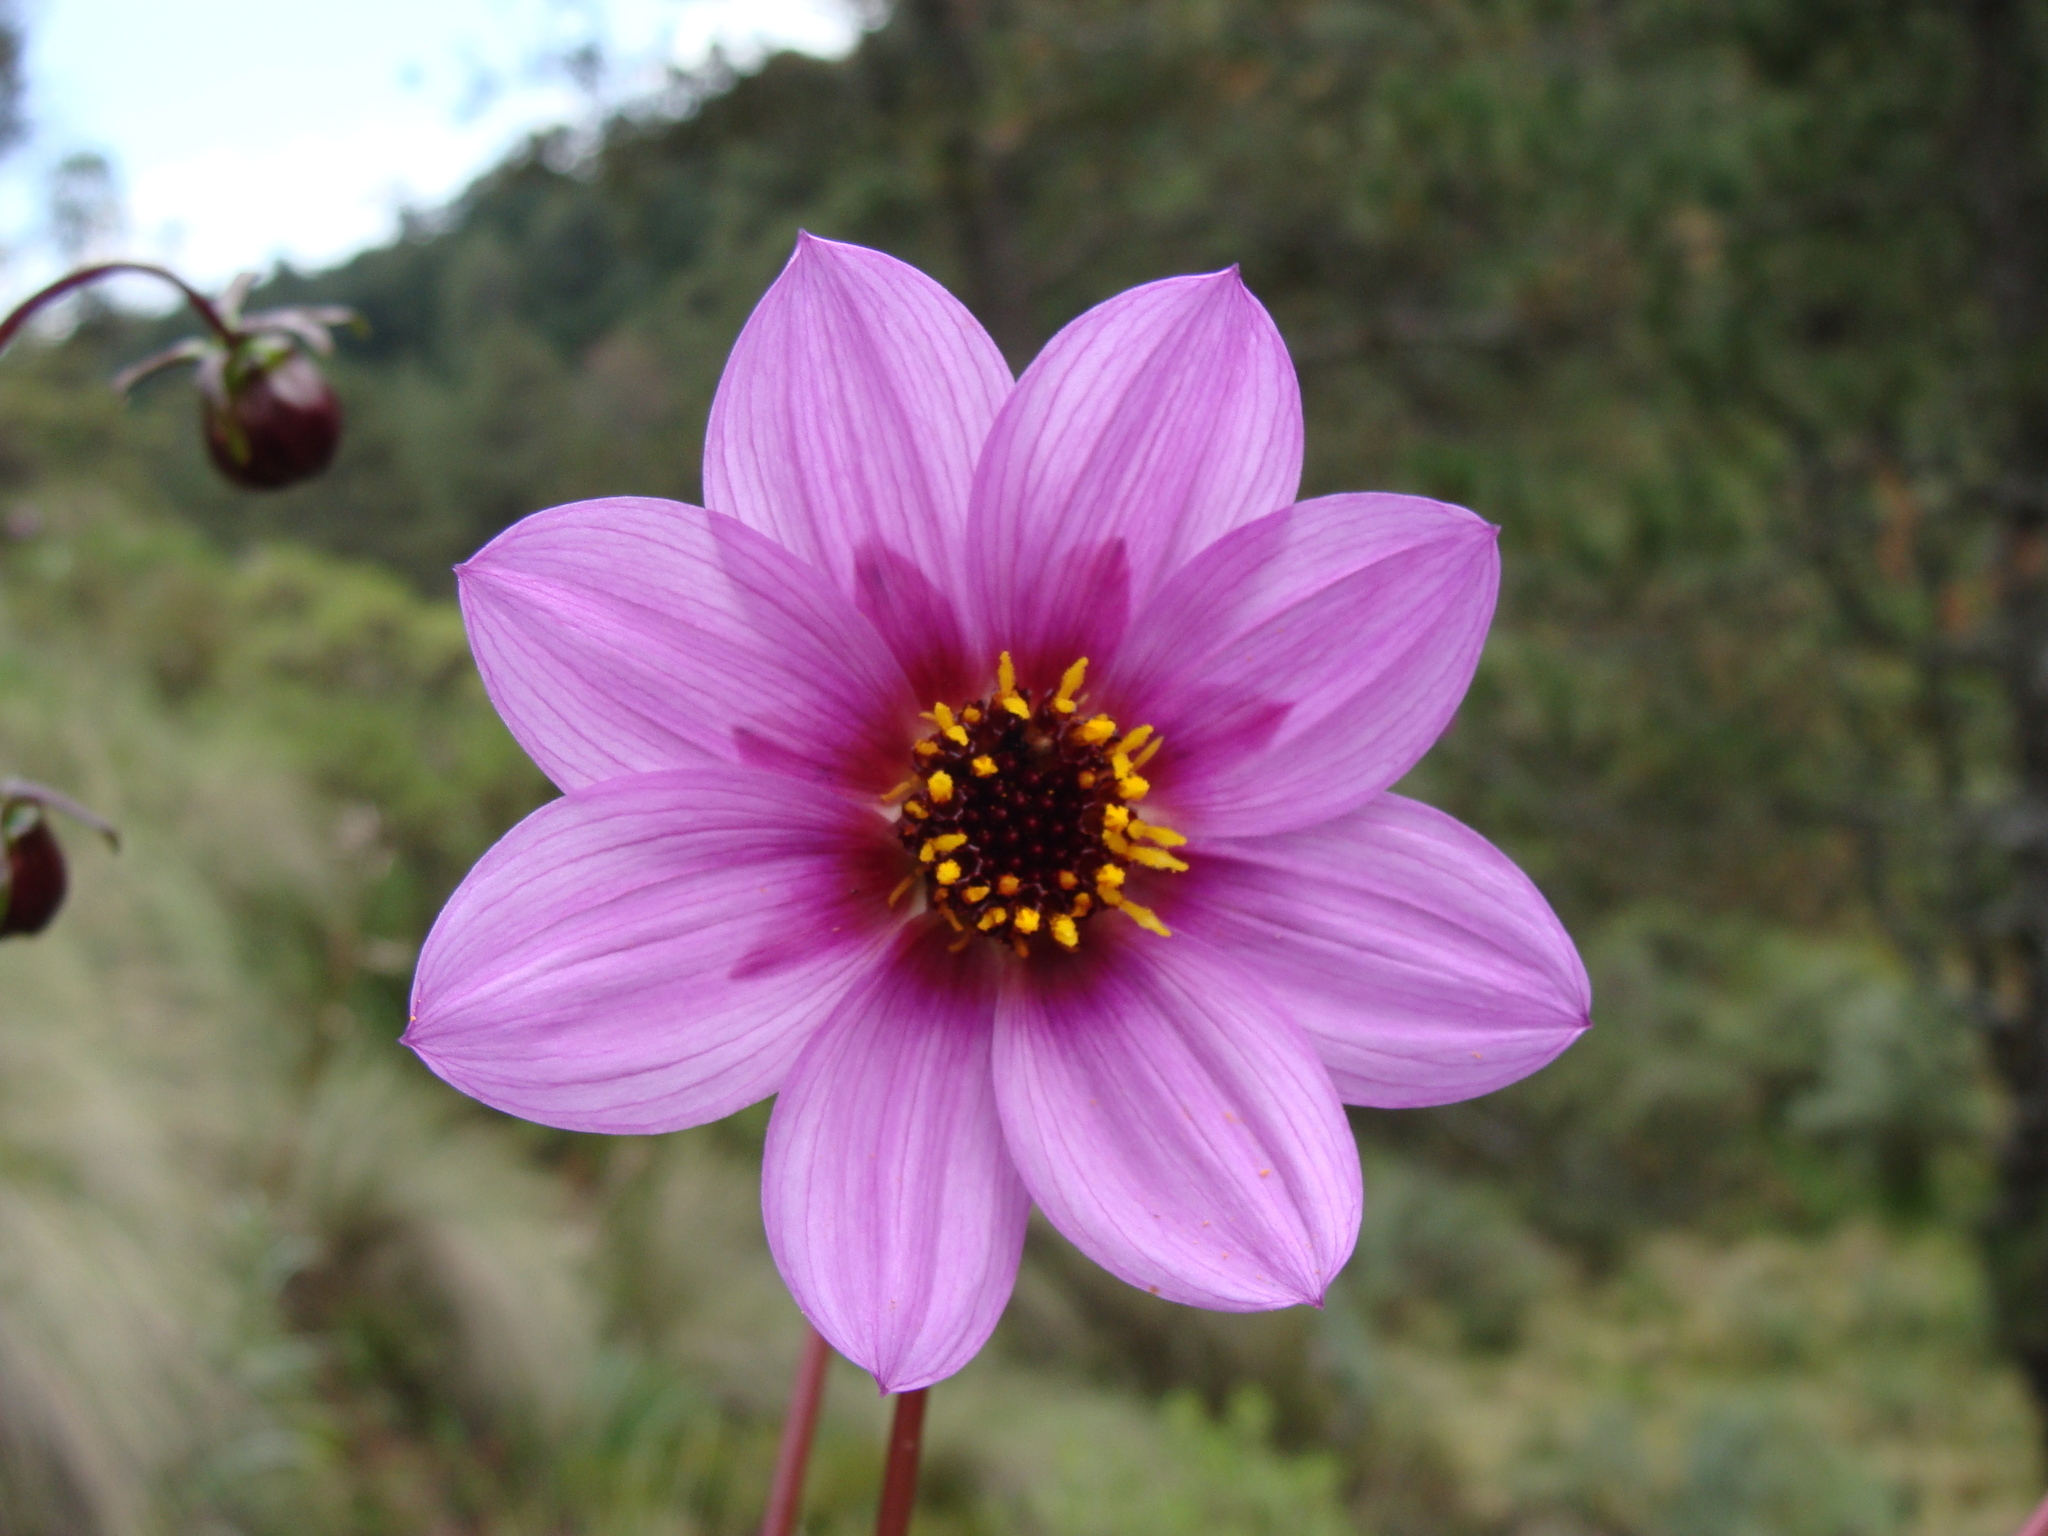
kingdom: Plantae
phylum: Tracheophyta
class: Magnoliopsida
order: Asterales
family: Asteraceae
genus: Dahlia
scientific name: Dahlia merckii
